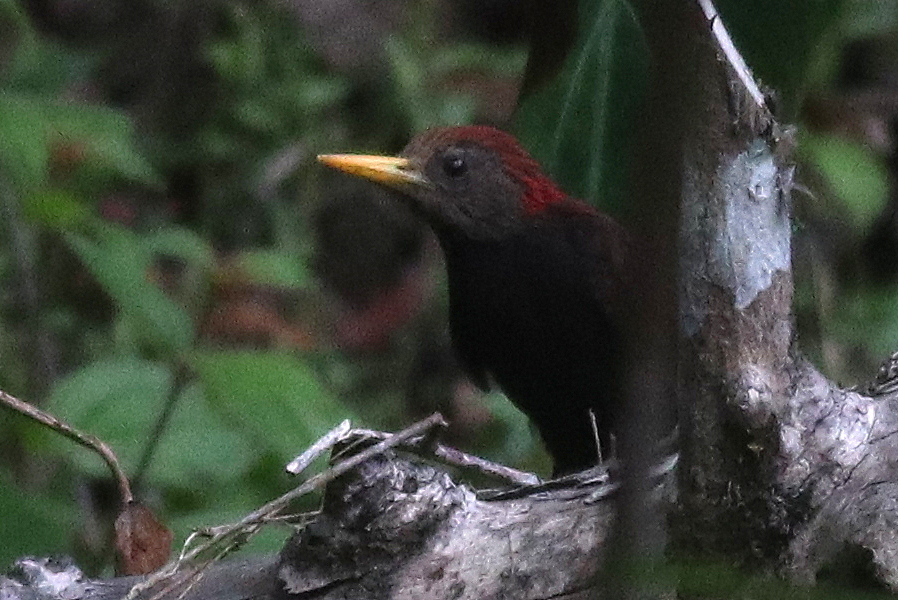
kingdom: Animalia
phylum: Chordata
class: Aves
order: Piciformes
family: Picidae
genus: Blythipicus
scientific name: Blythipicus rubiginosus
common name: Maroon woodpecker
